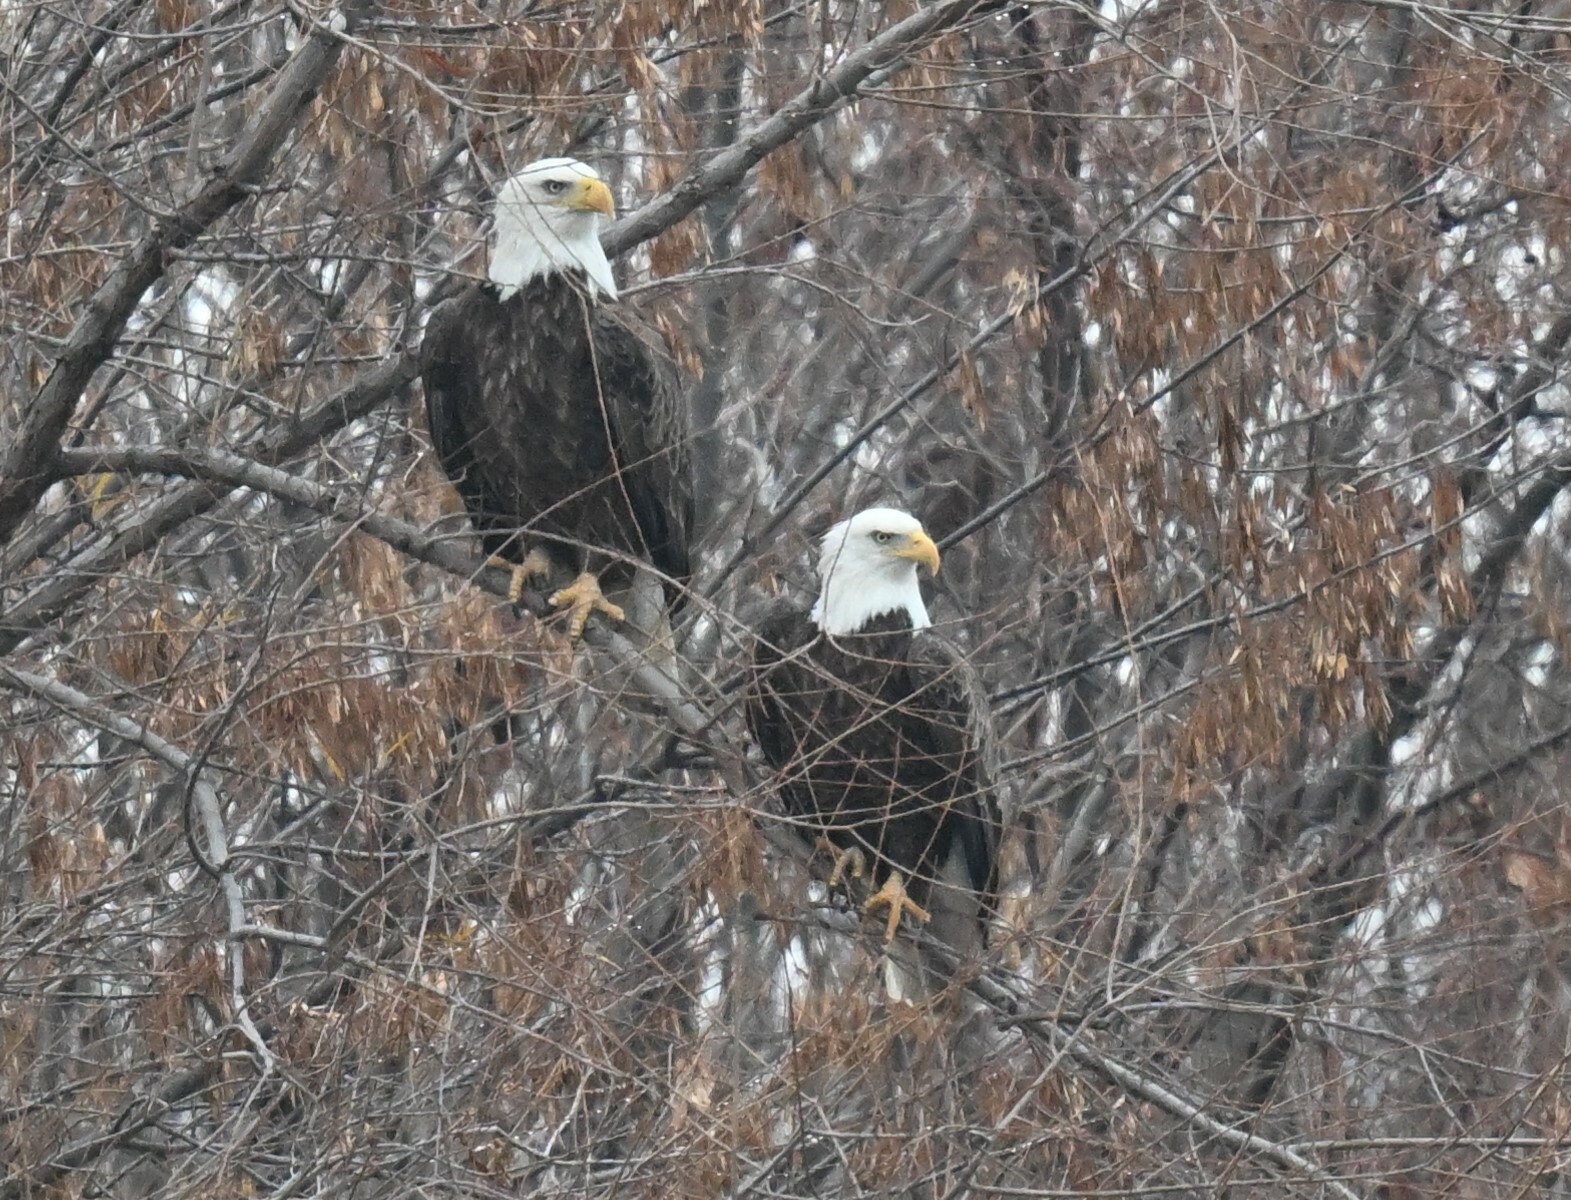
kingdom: Animalia
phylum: Chordata
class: Aves
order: Accipitriformes
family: Accipitridae
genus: Haliaeetus
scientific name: Haliaeetus leucocephalus
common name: Bald eagle
